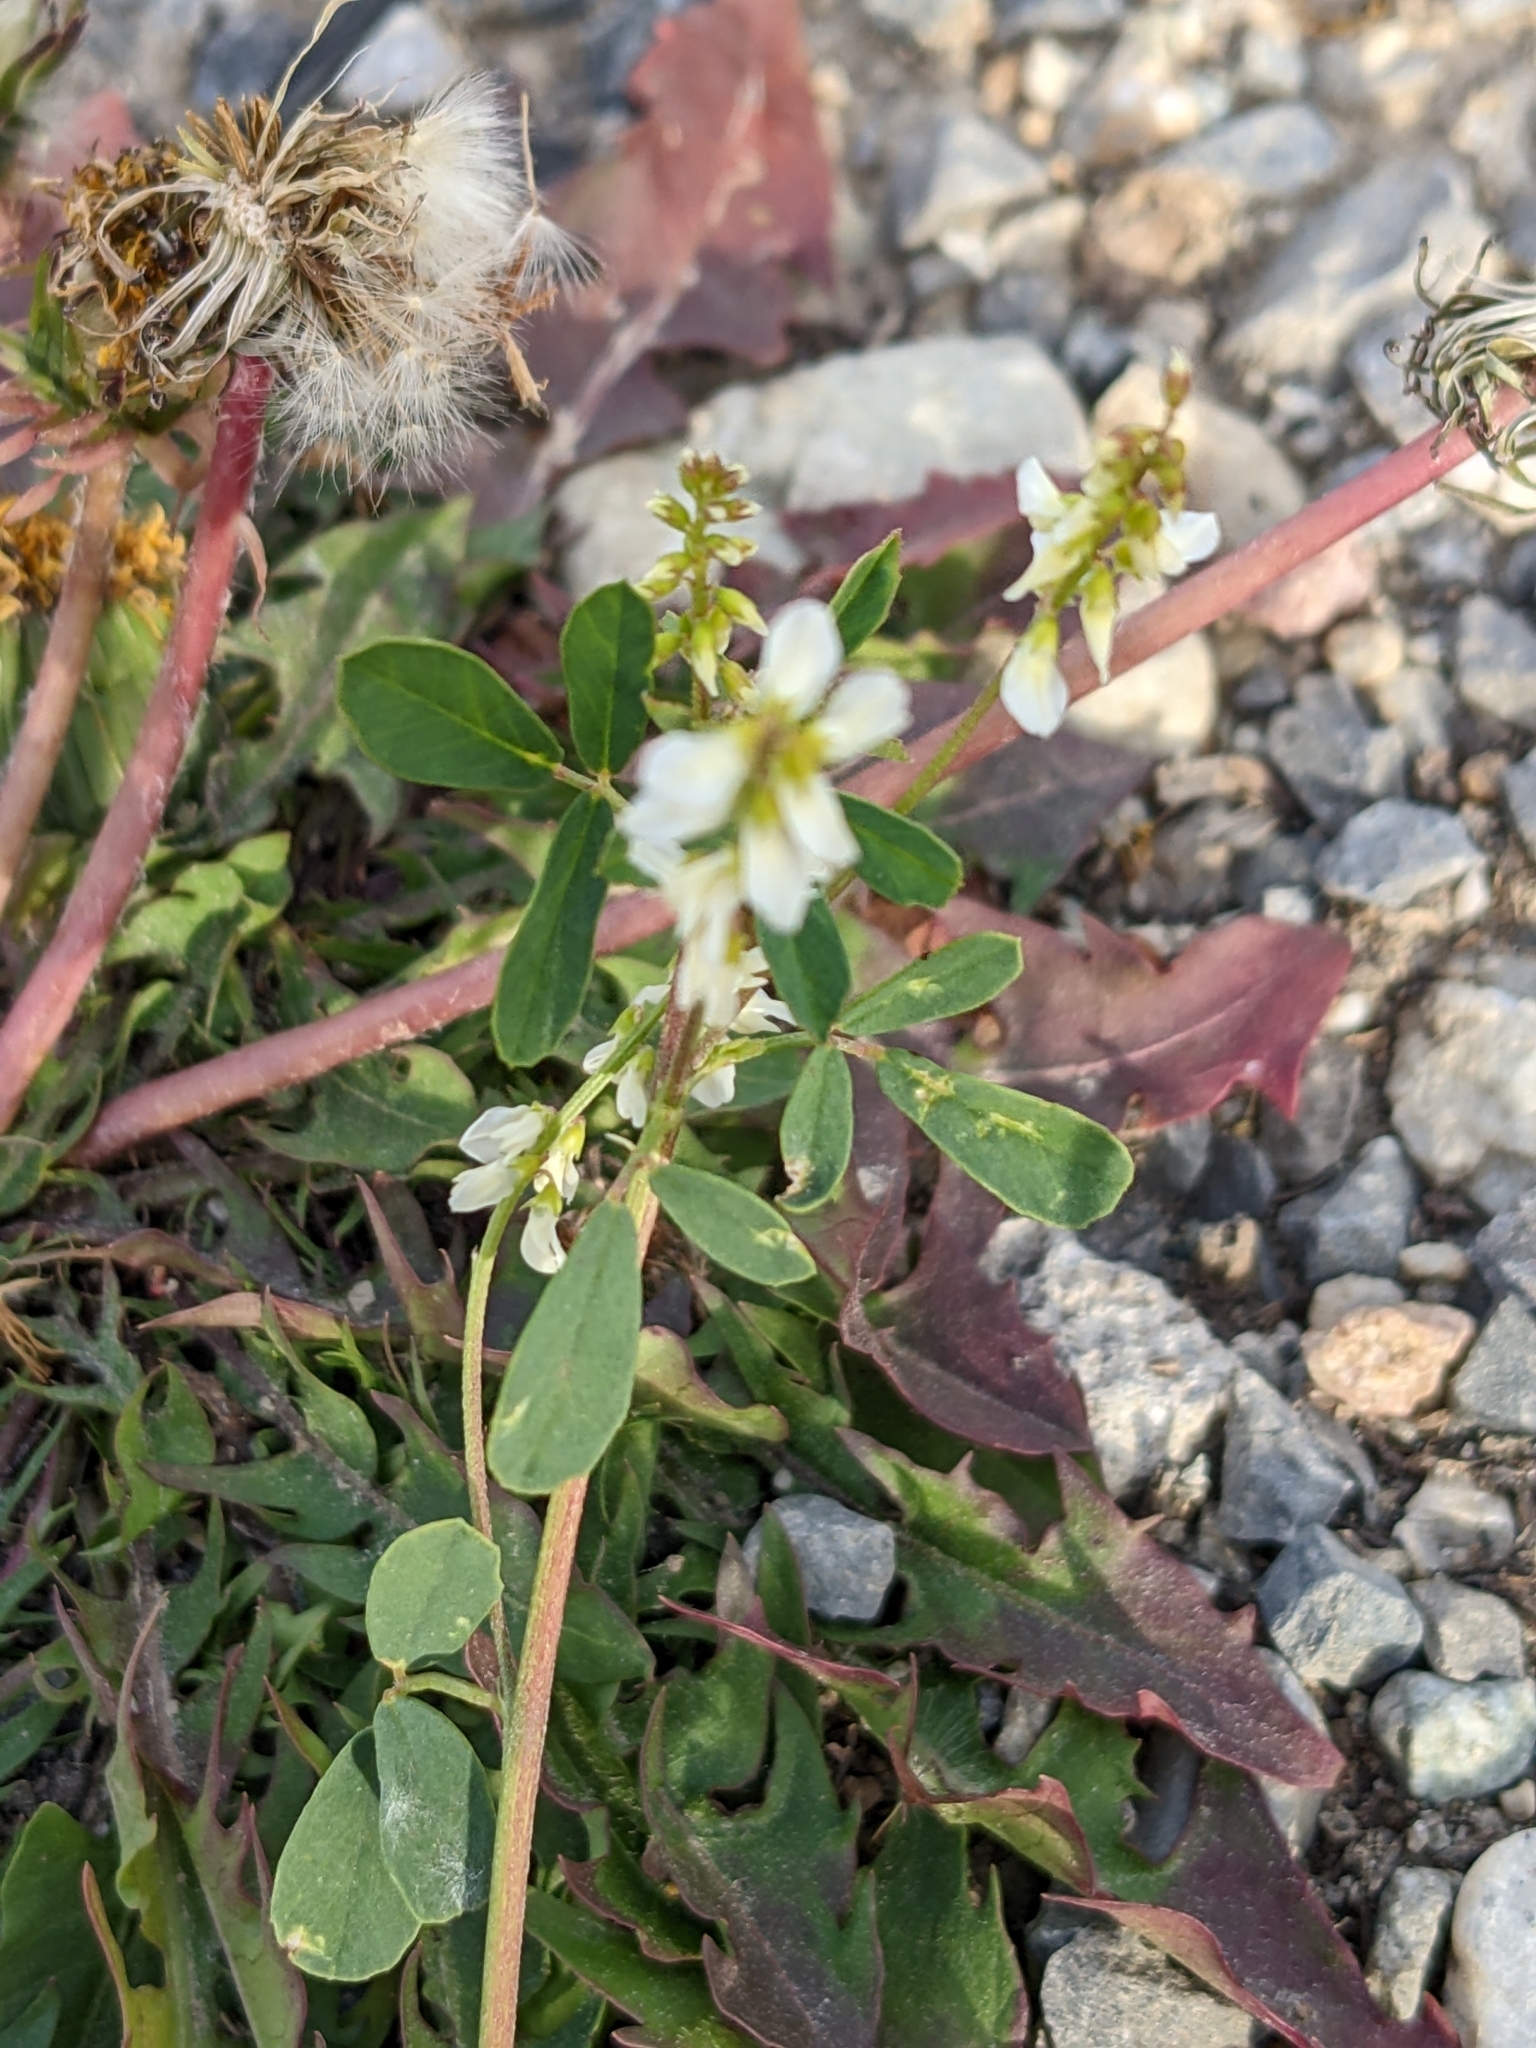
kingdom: Plantae
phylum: Tracheophyta
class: Magnoliopsida
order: Fabales
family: Fabaceae
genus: Melilotus
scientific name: Melilotus albus
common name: White melilot
